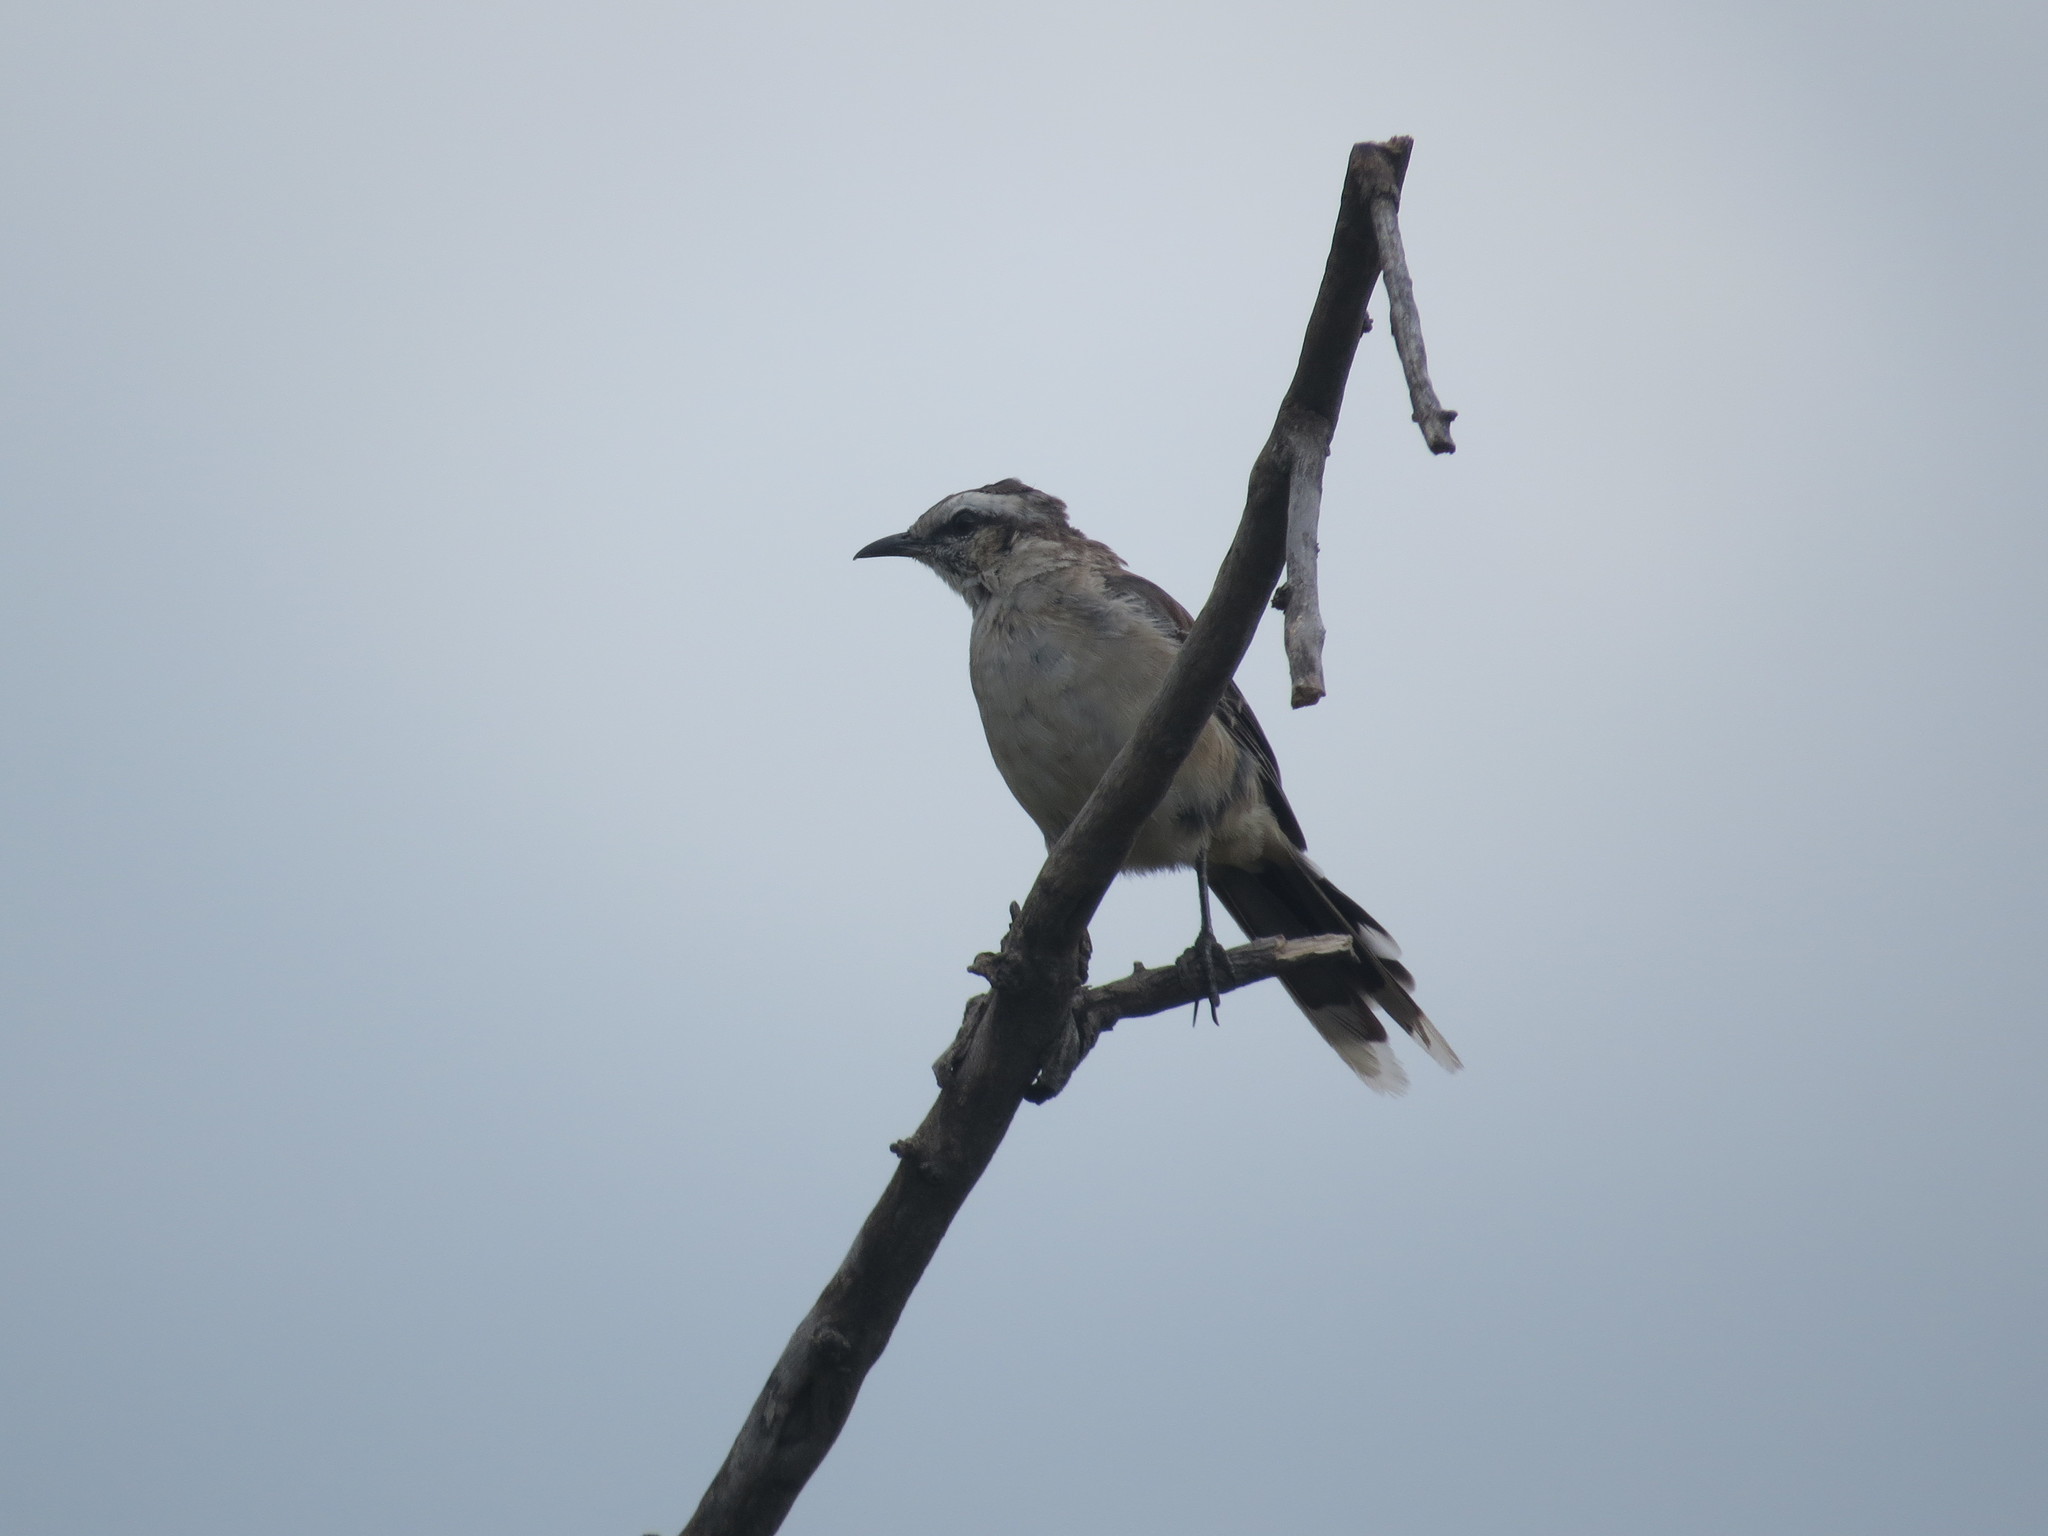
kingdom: Animalia
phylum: Chordata
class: Aves
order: Passeriformes
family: Mimidae
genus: Mimus
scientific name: Mimus saturninus
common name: Chalk-browed mockingbird
